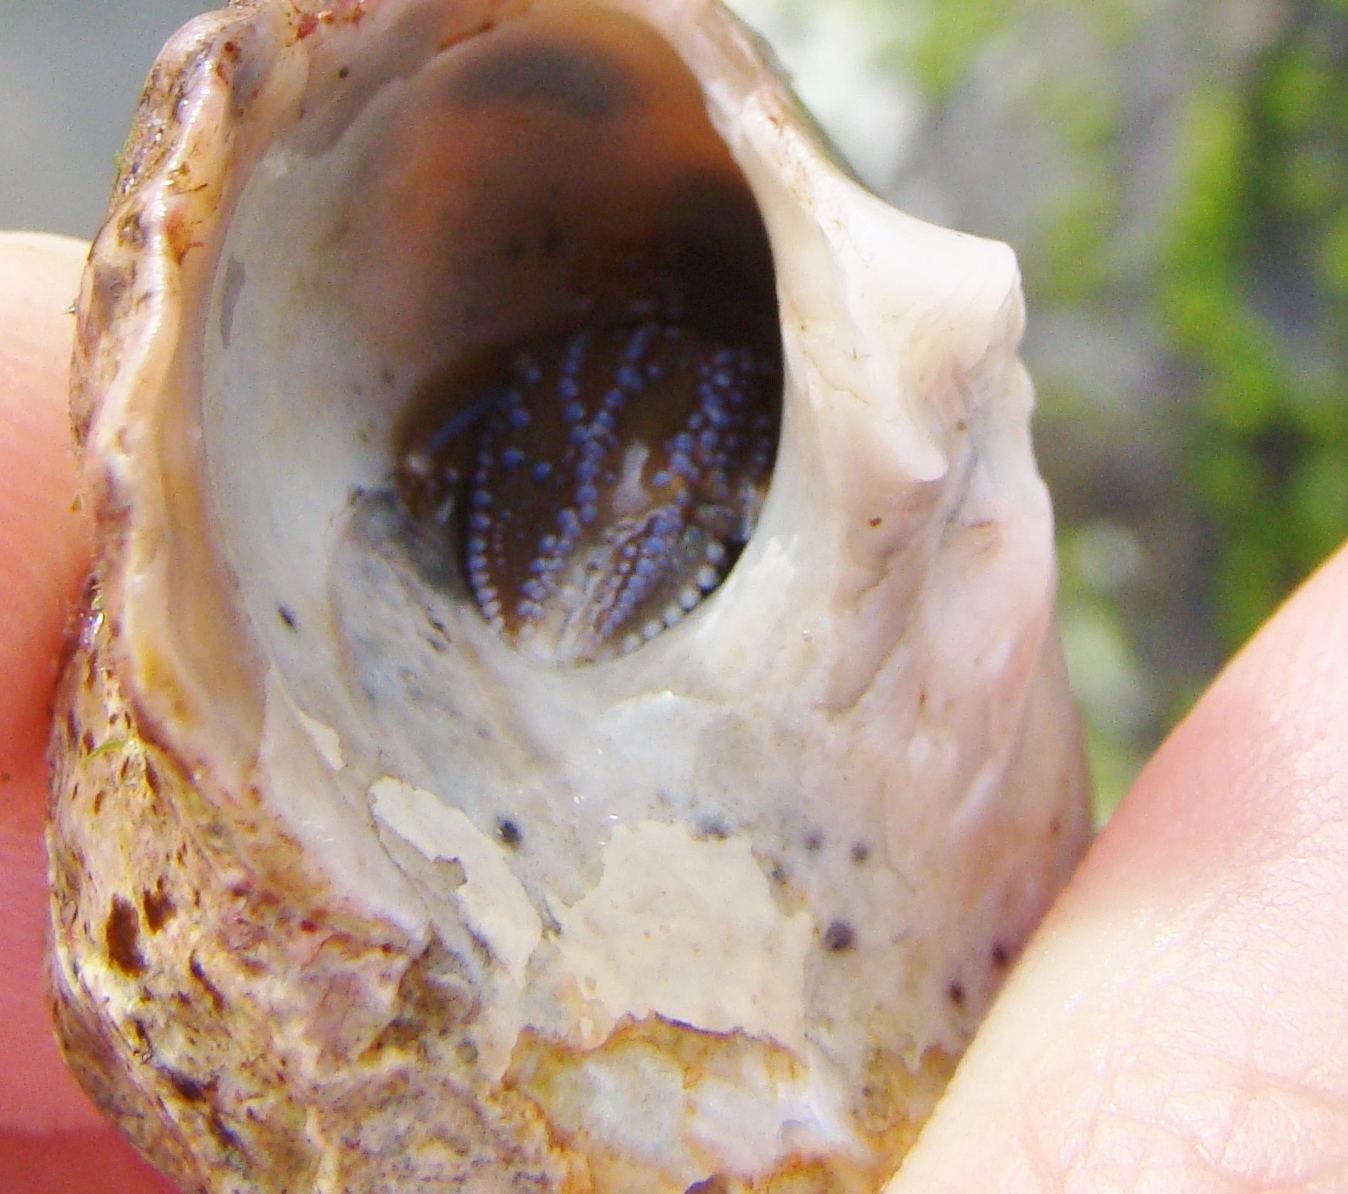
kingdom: Animalia
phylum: Arthropoda
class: Malacostraca
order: Decapoda
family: Paguridae
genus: Pagurus
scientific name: Pagurus novizealandiae
